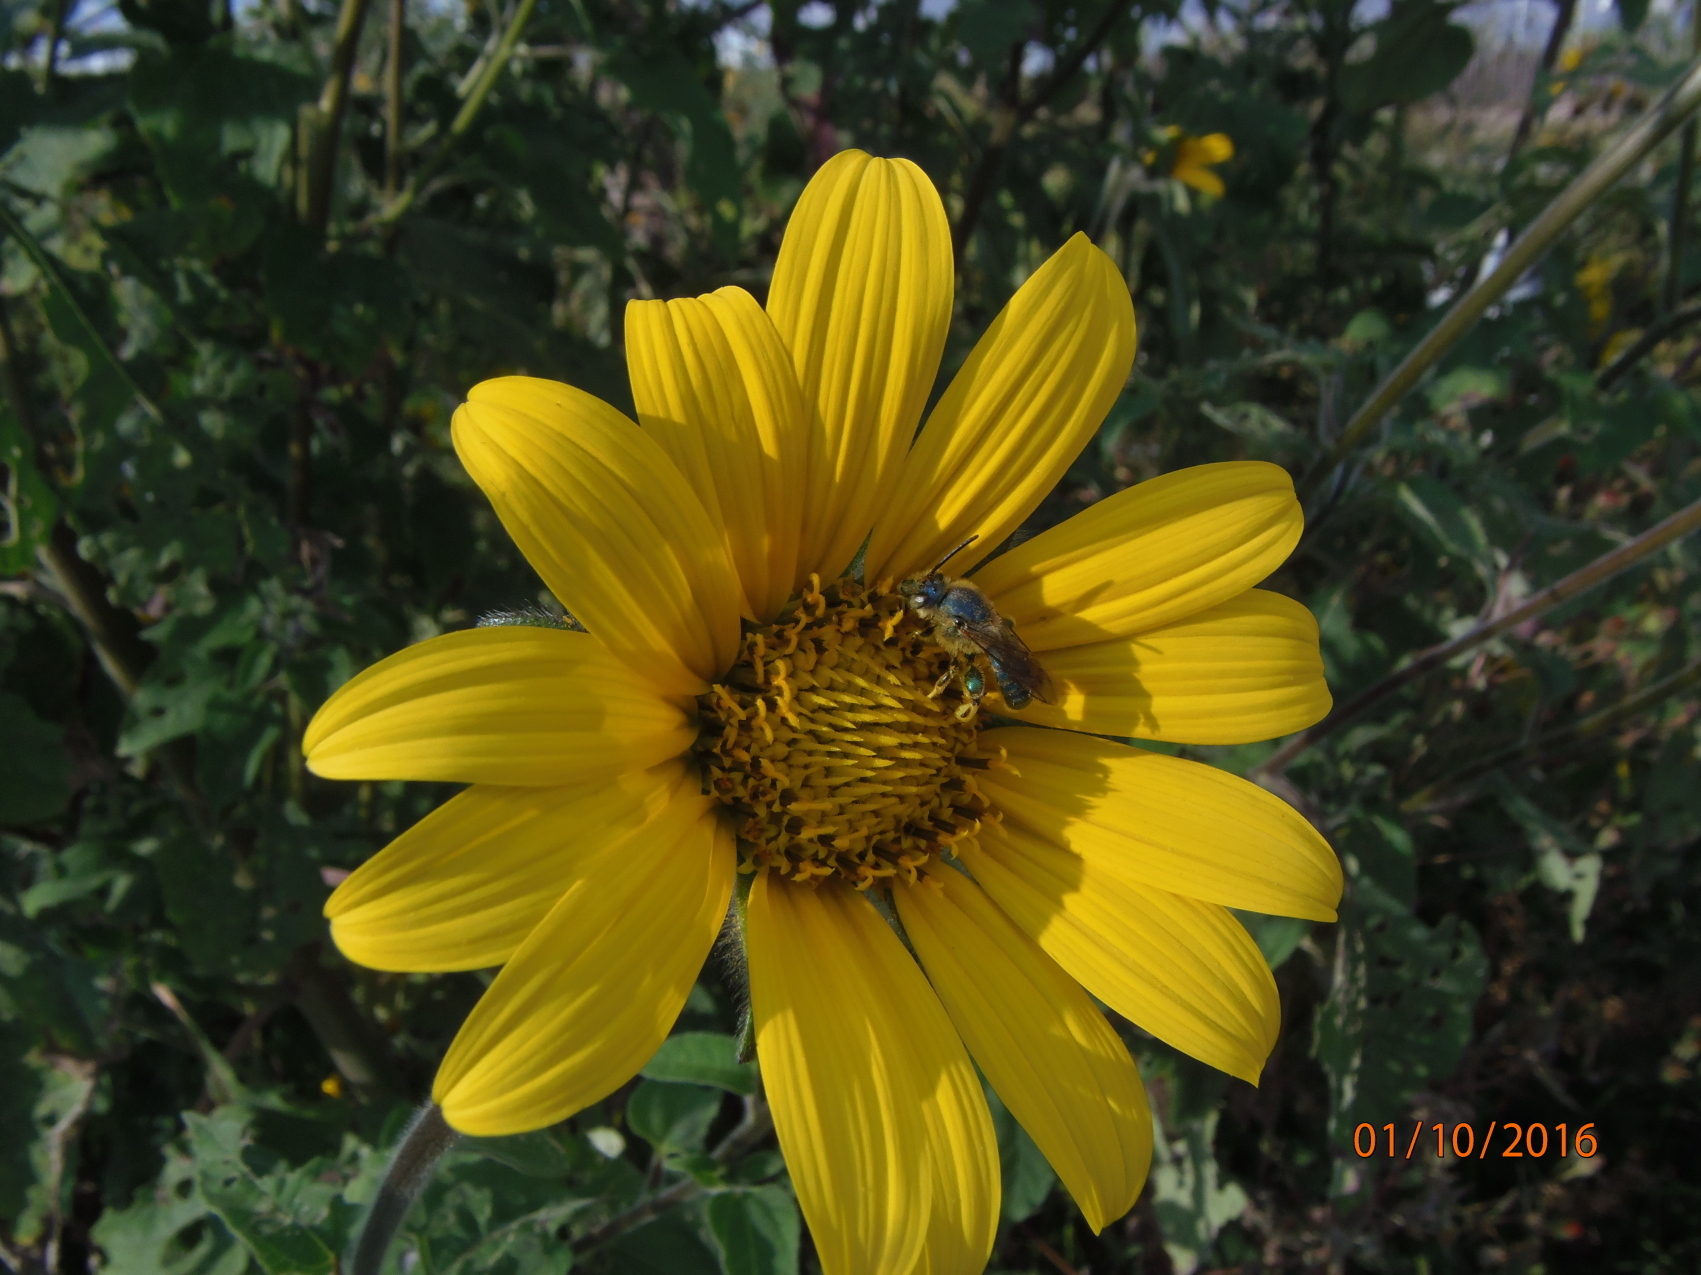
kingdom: Animalia
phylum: Arthropoda
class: Insecta
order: Hymenoptera
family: Halictidae
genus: Paragapostemon
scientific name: Paragapostemon coelestinus
